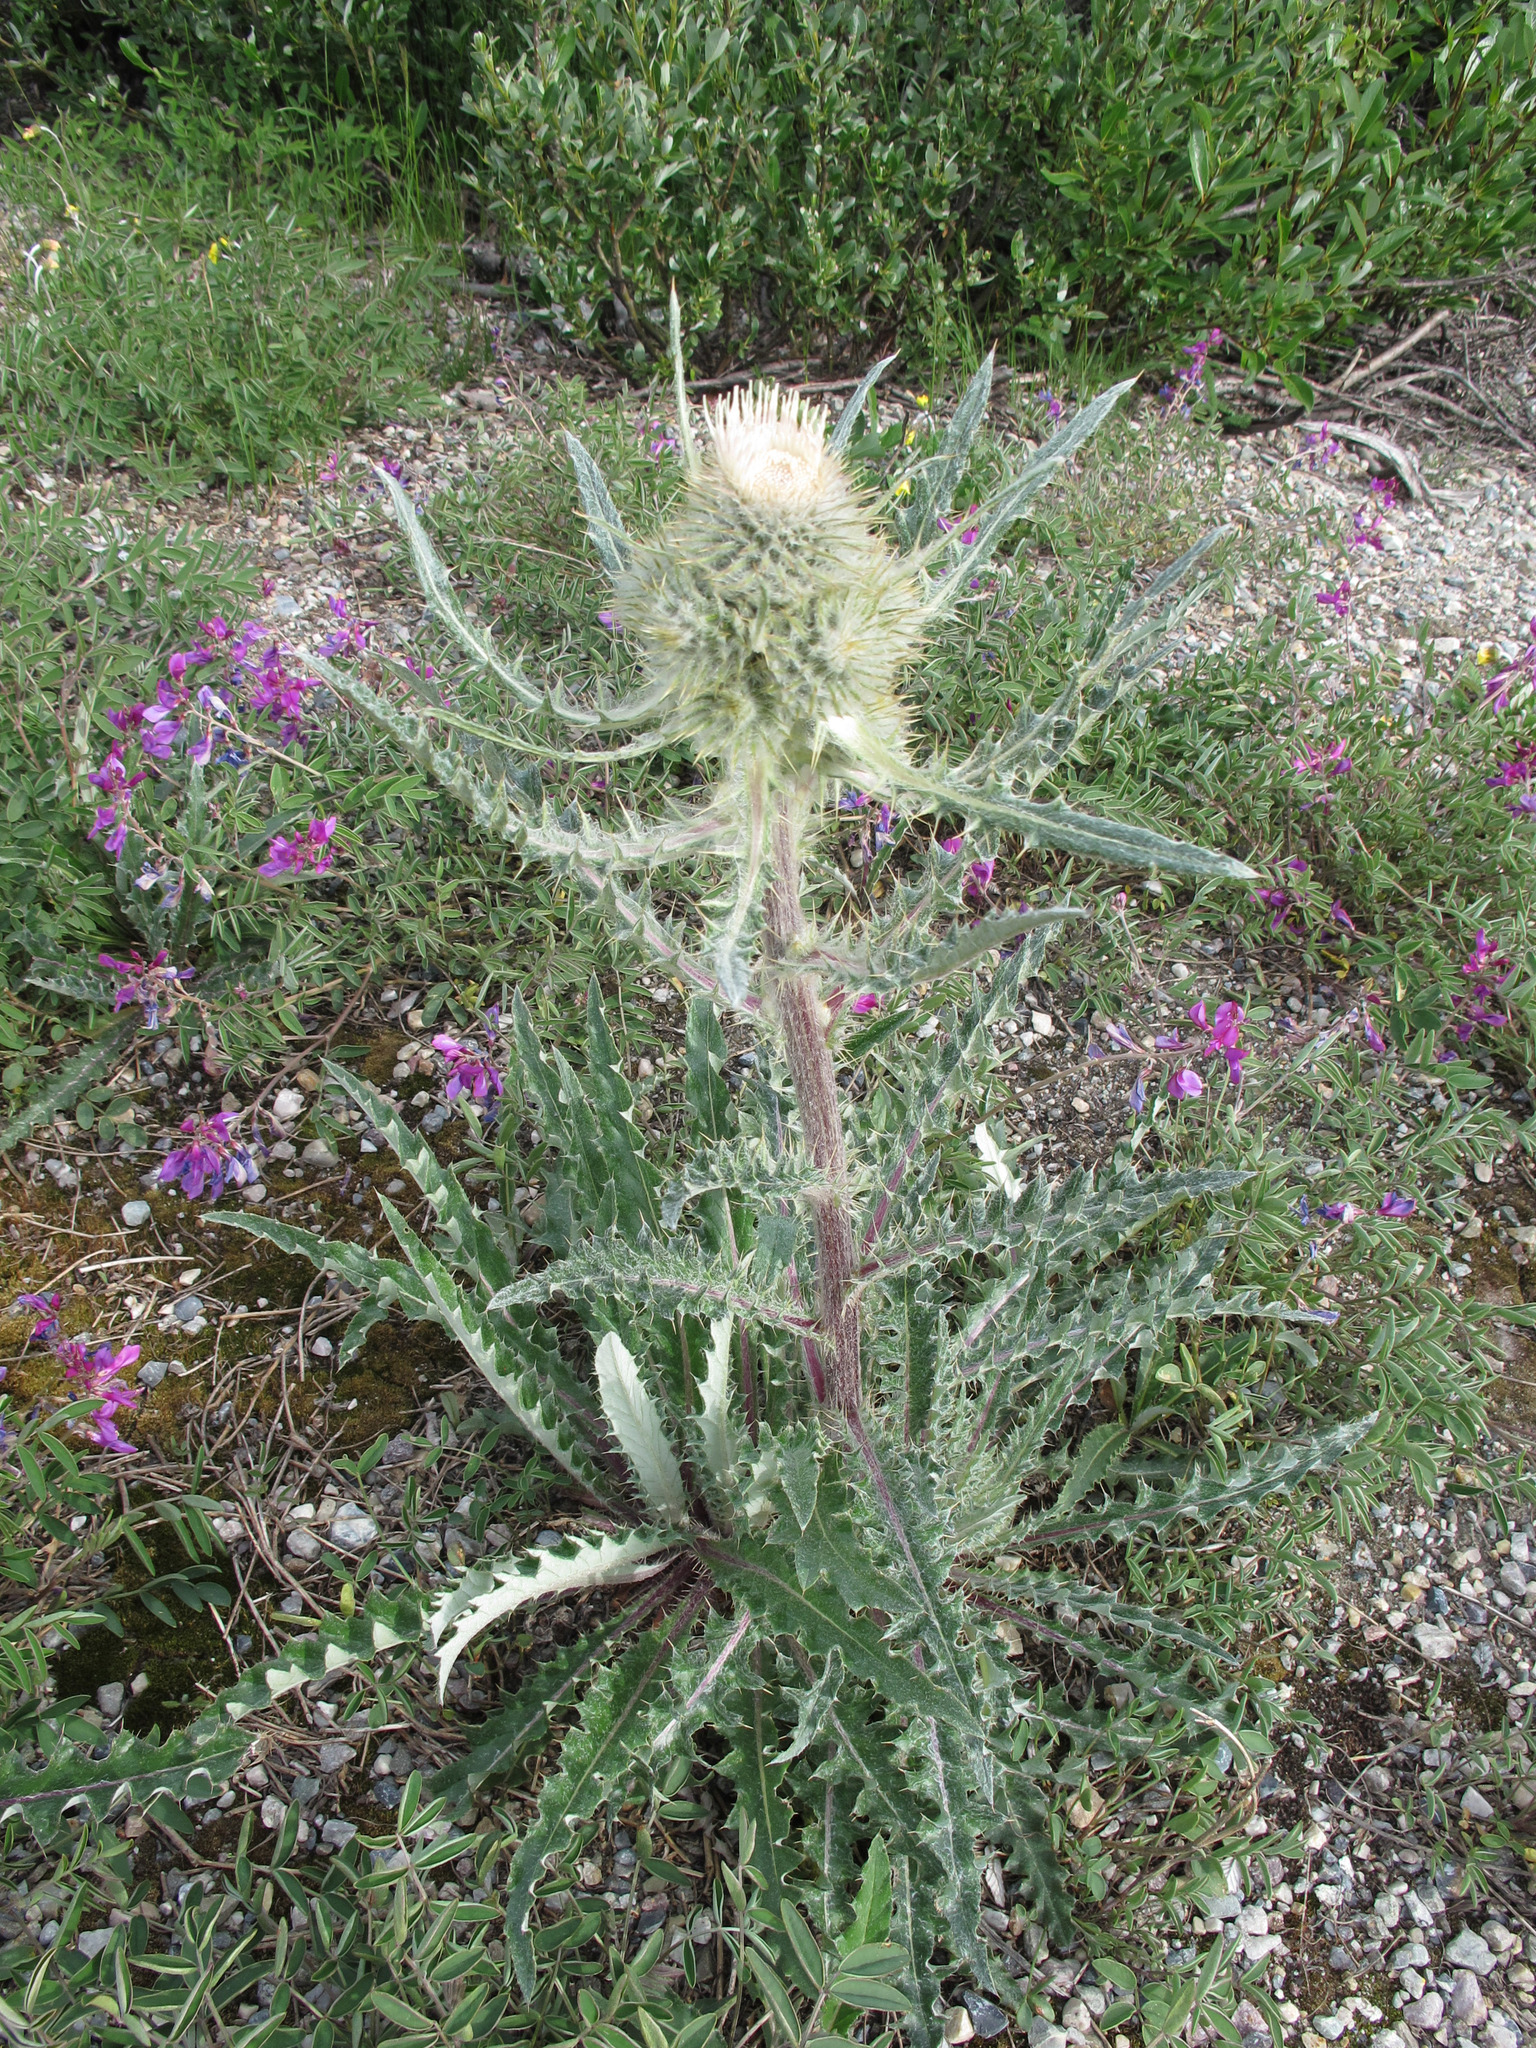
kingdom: Plantae
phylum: Tracheophyta
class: Magnoliopsida
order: Asterales
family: Asteraceae
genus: Cirsium
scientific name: Cirsium hookerianum
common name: Hooker's thistle
